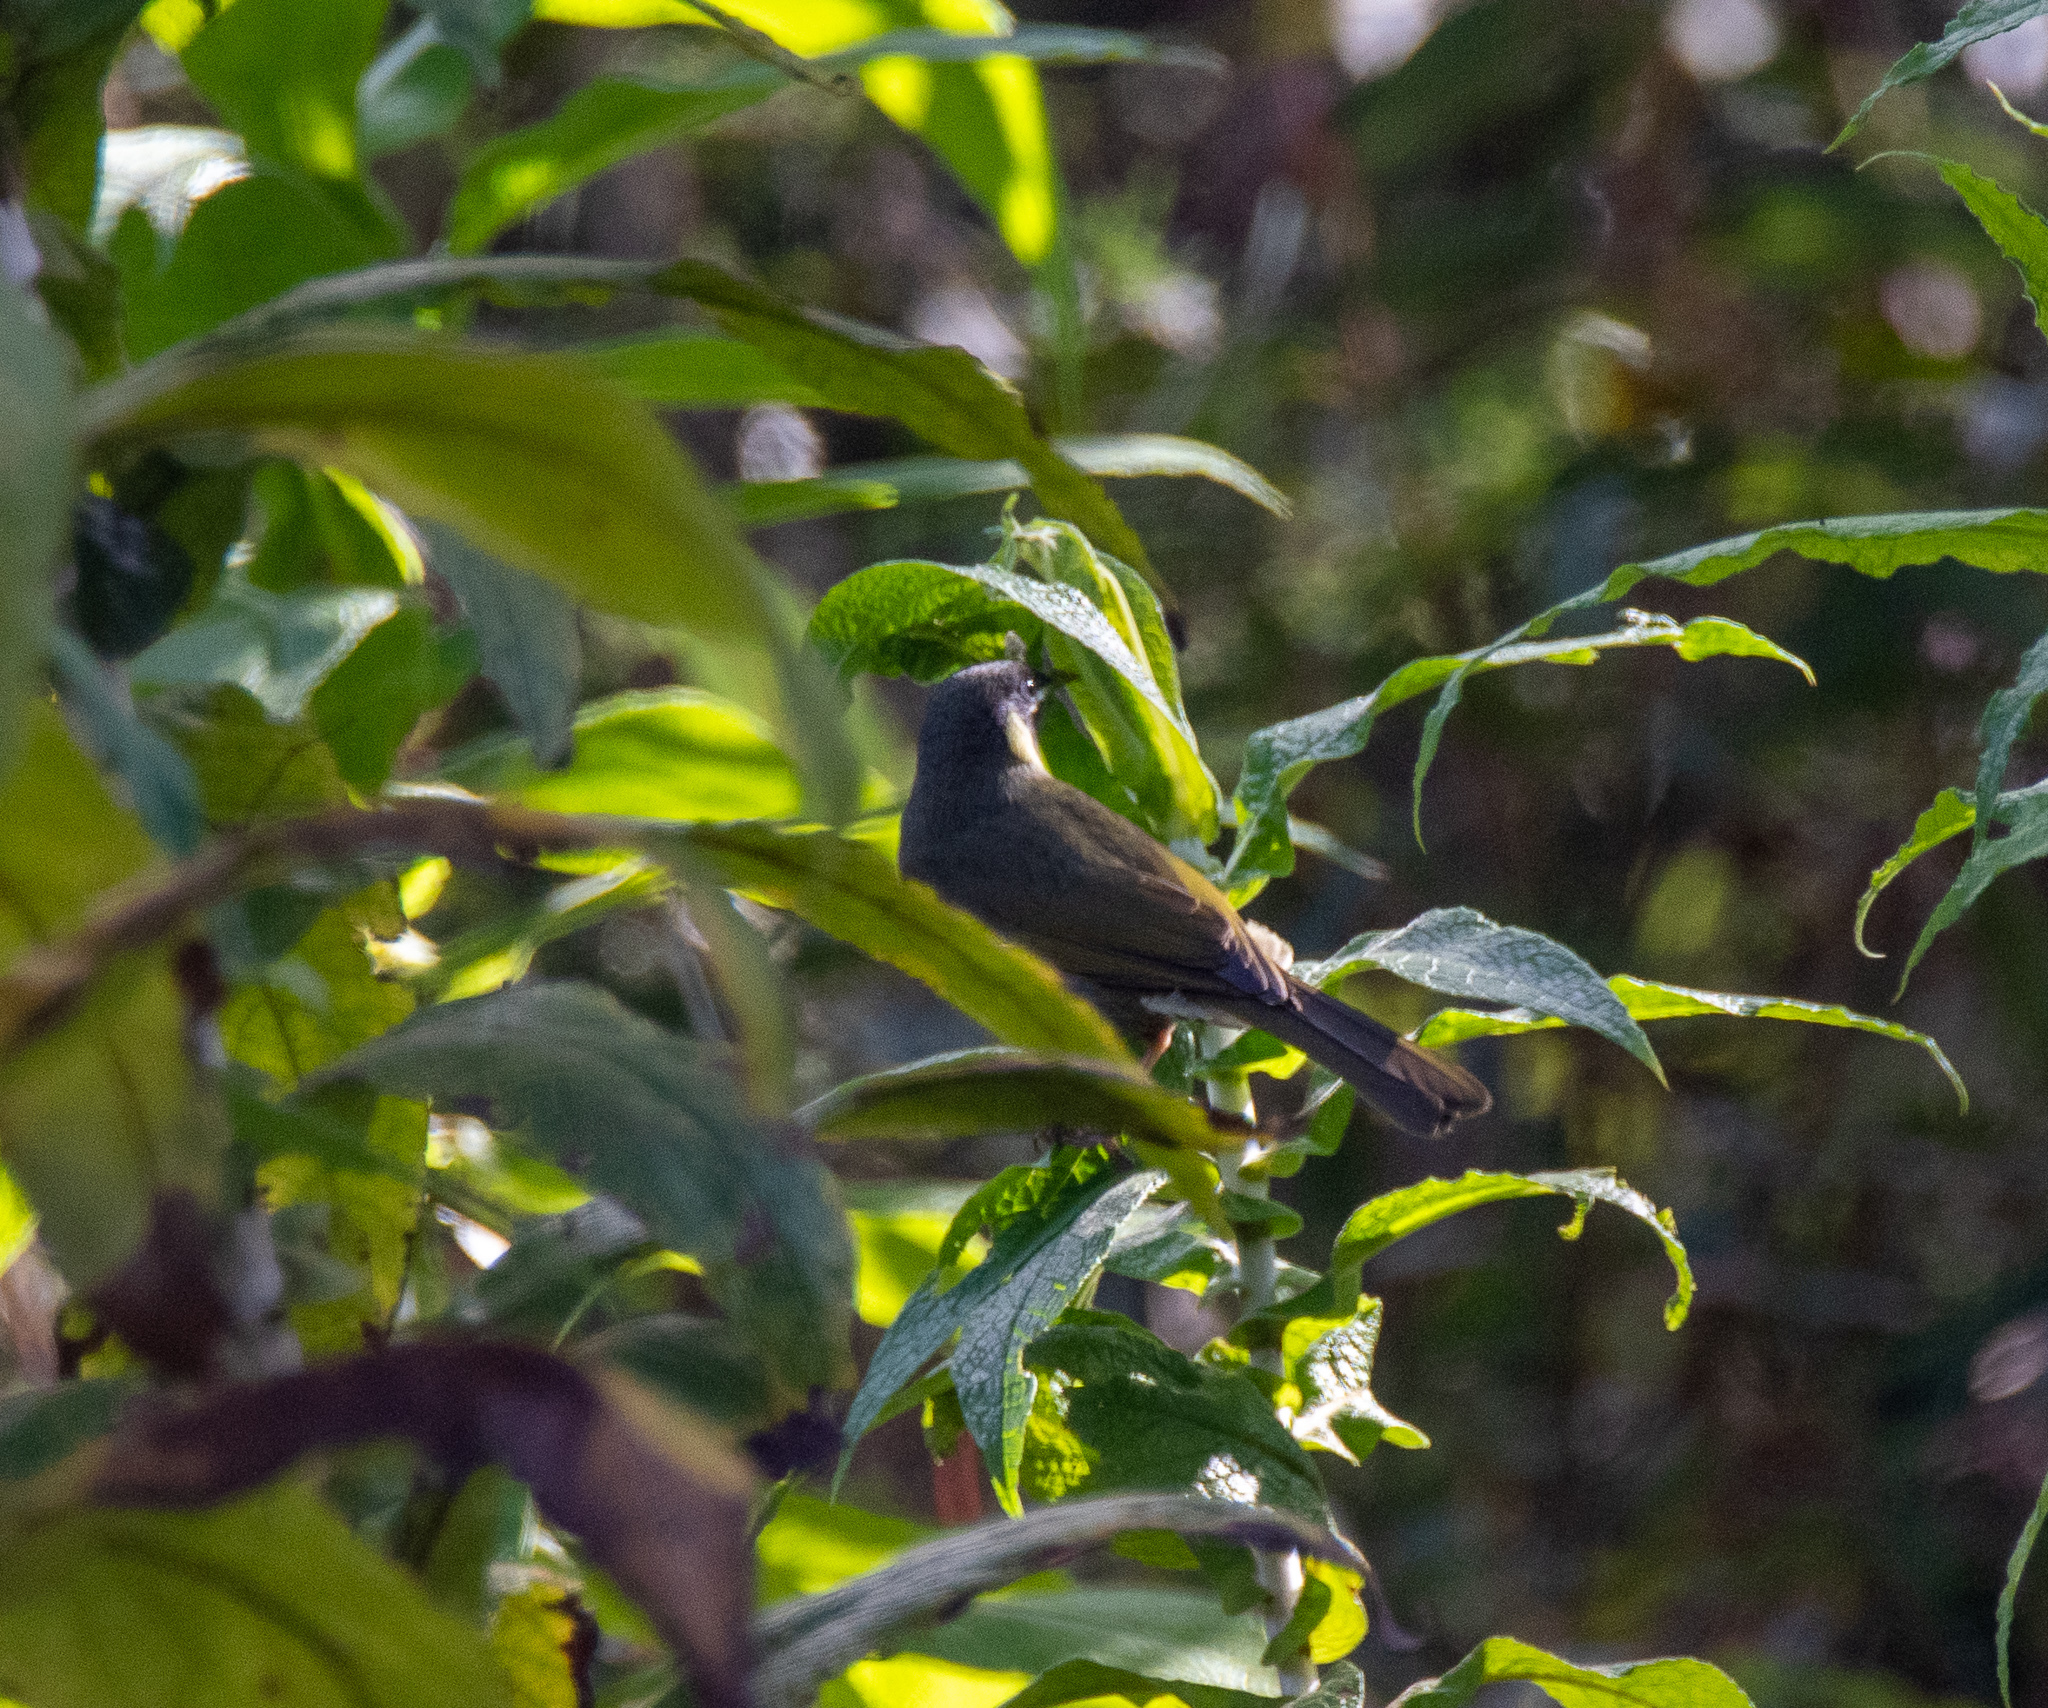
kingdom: Animalia
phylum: Chordata
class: Aves
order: Passeriformes
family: Meliphagidae
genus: Meliphaga
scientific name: Meliphaga lewinii
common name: Lewin's honeyeater
